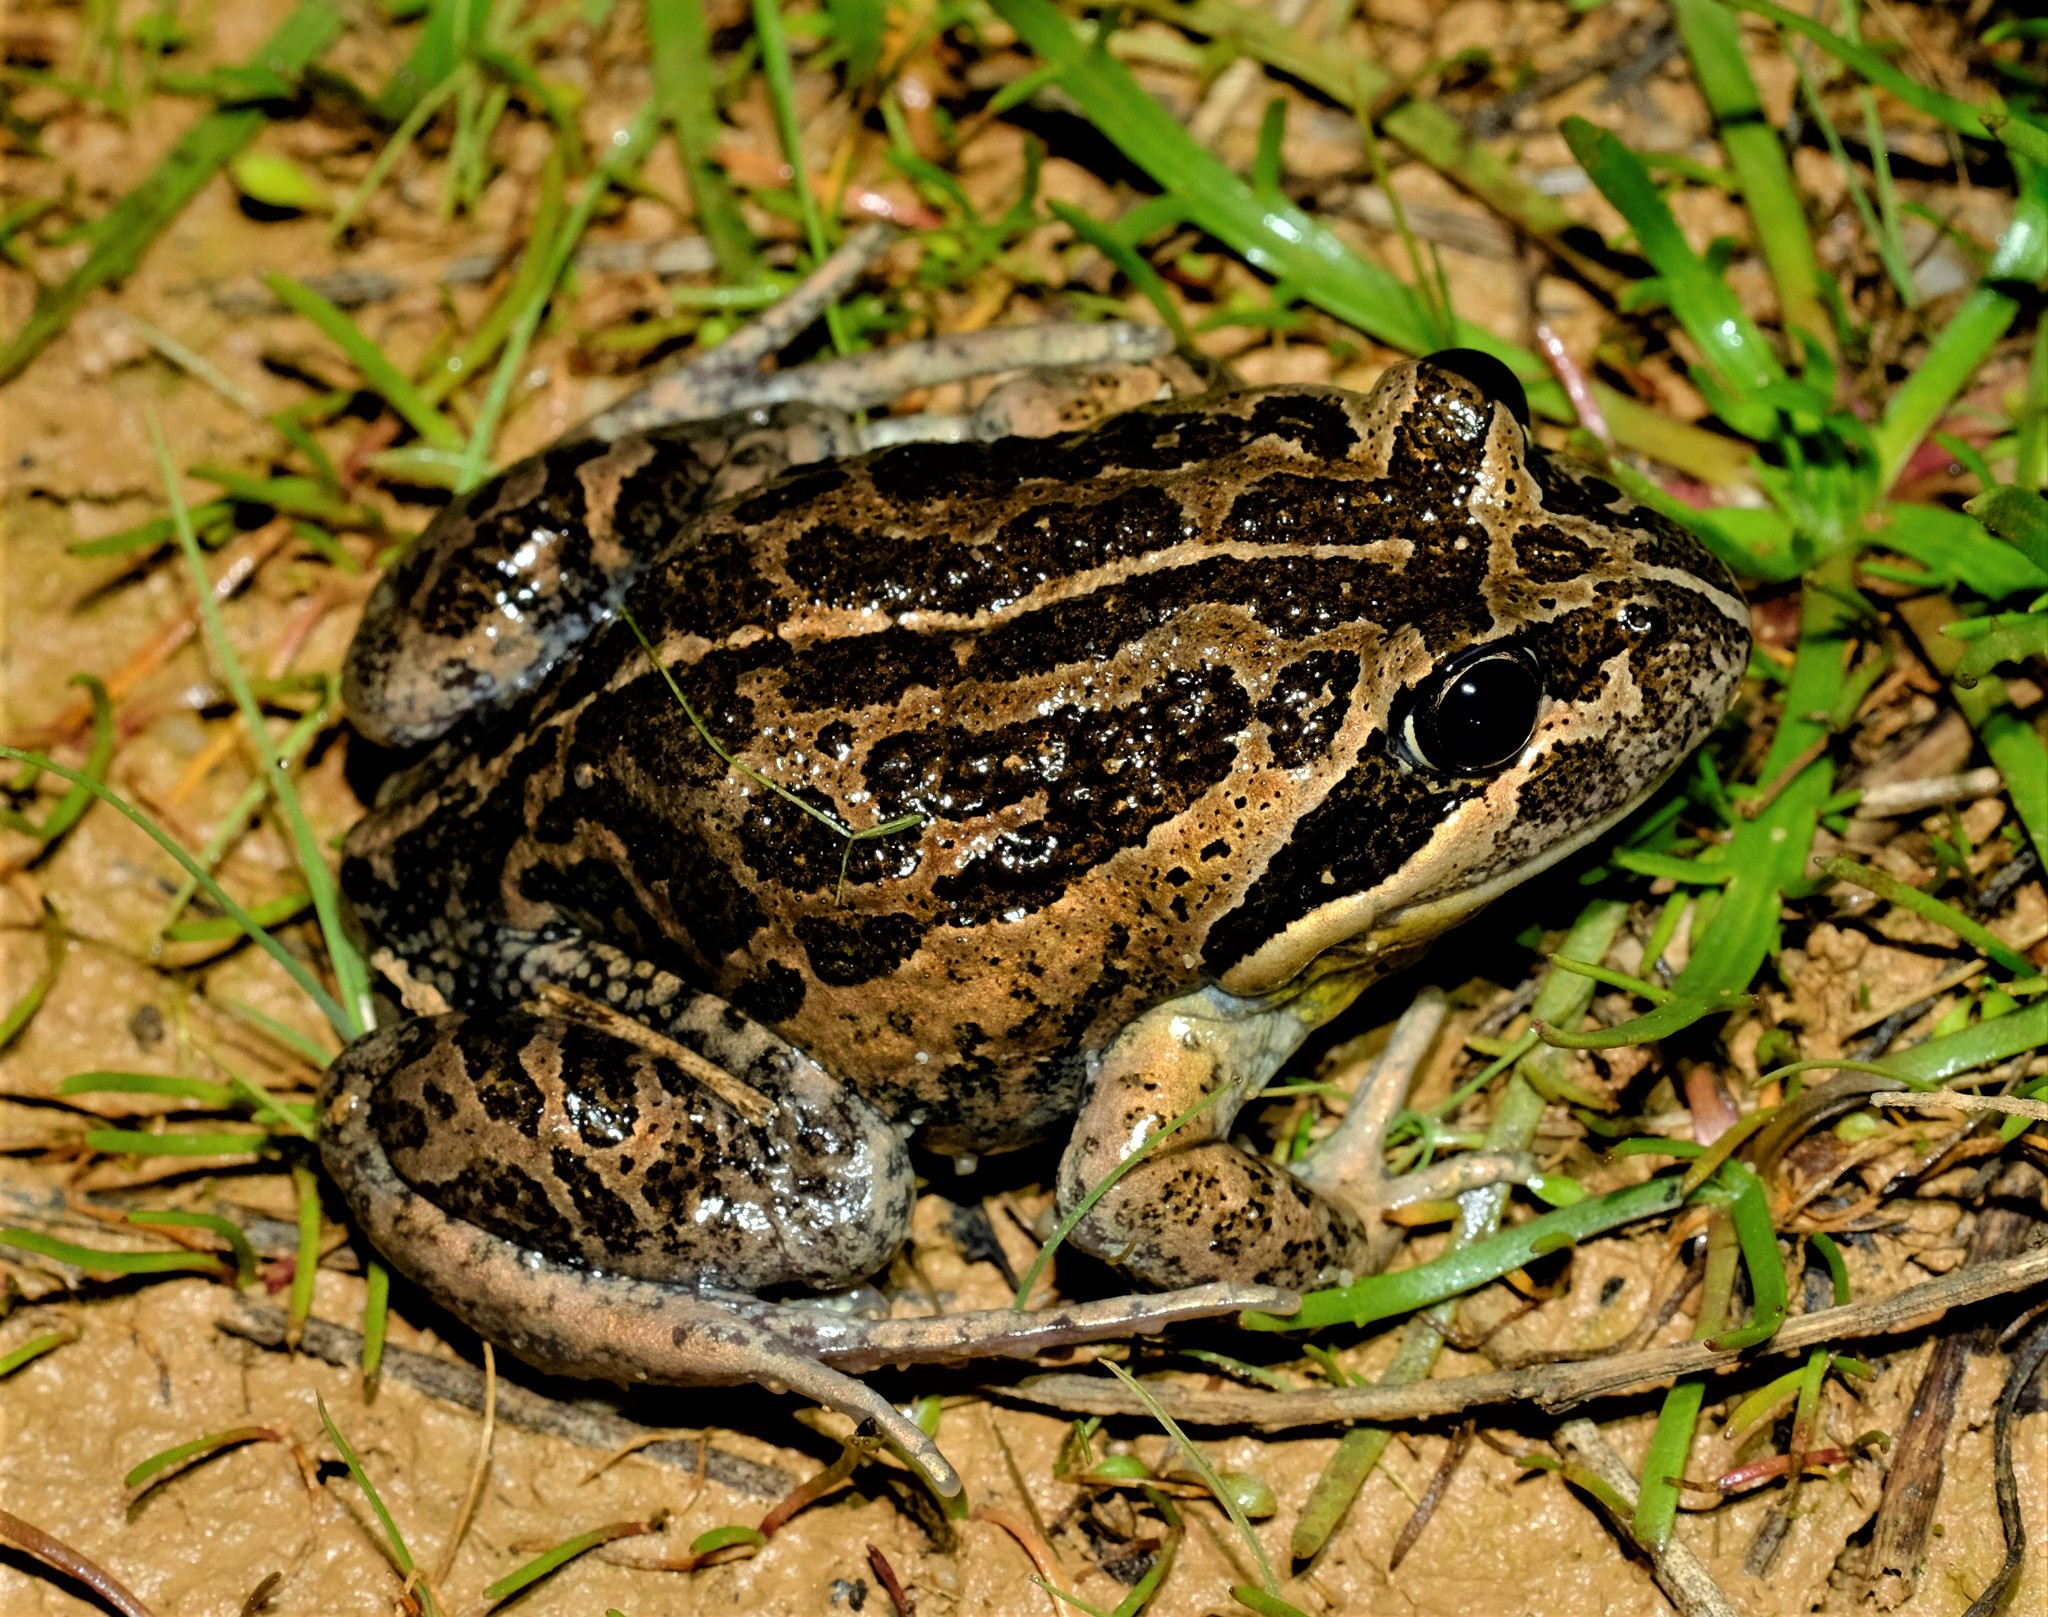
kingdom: Animalia
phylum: Chordata
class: Amphibia
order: Anura
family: Limnodynastidae
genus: Limnodynastes
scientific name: Limnodynastes dumerilii
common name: Banjo frog
